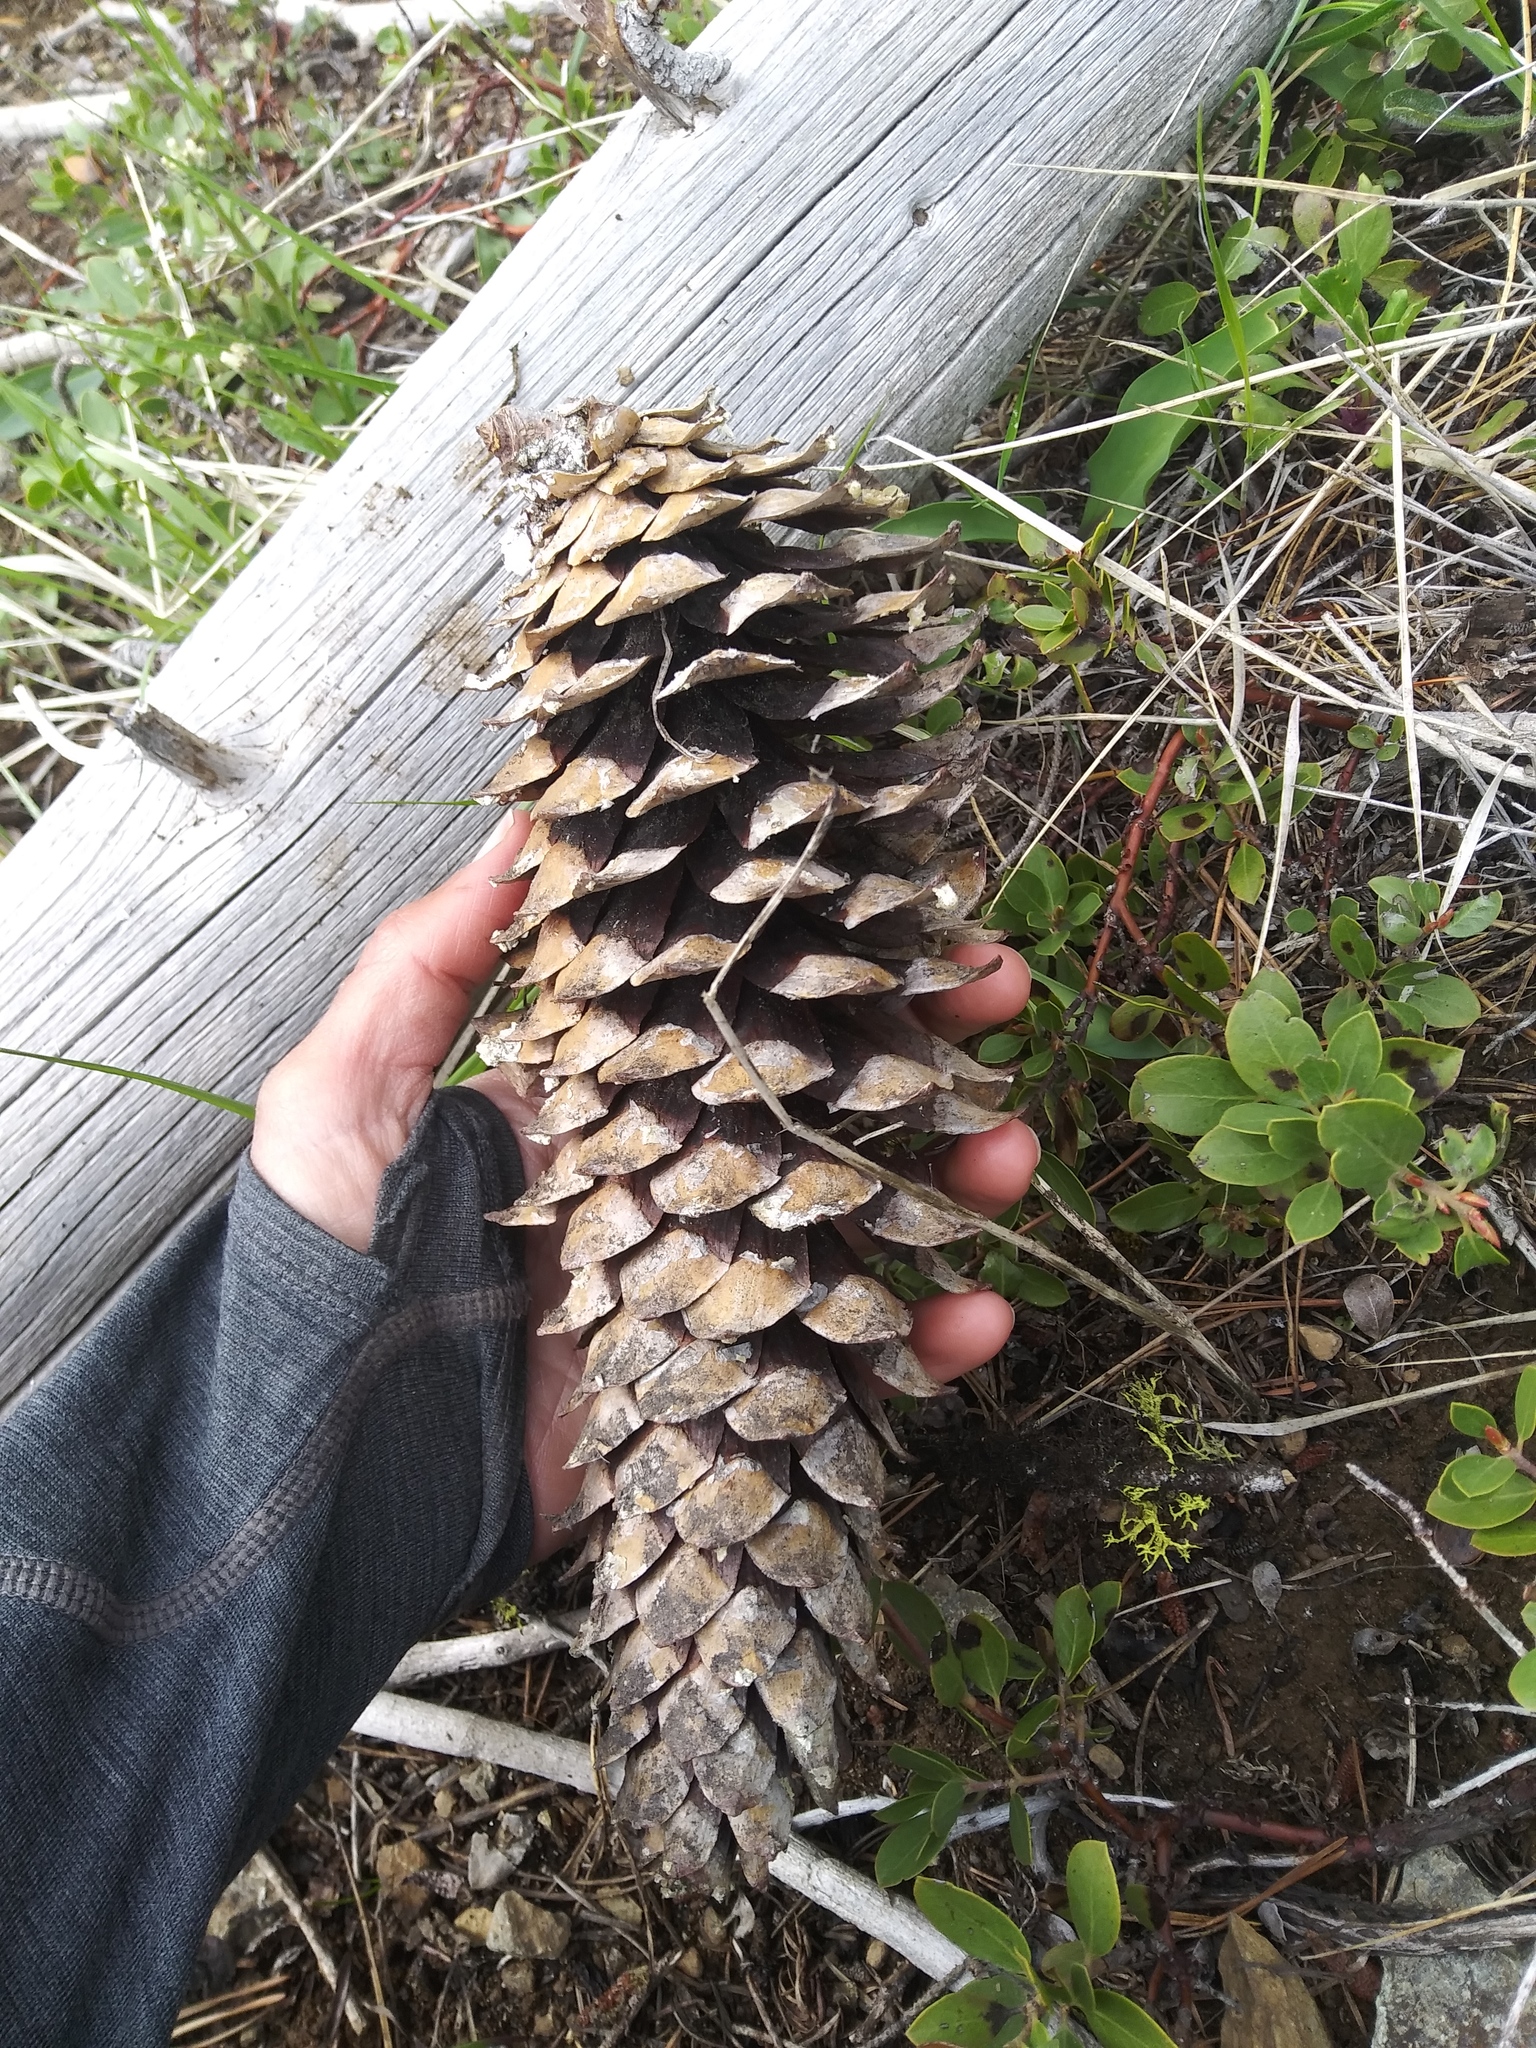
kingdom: Plantae
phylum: Tracheophyta
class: Pinopsida
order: Pinales
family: Pinaceae
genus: Pinus
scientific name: Pinus monticola
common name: Western white pine
